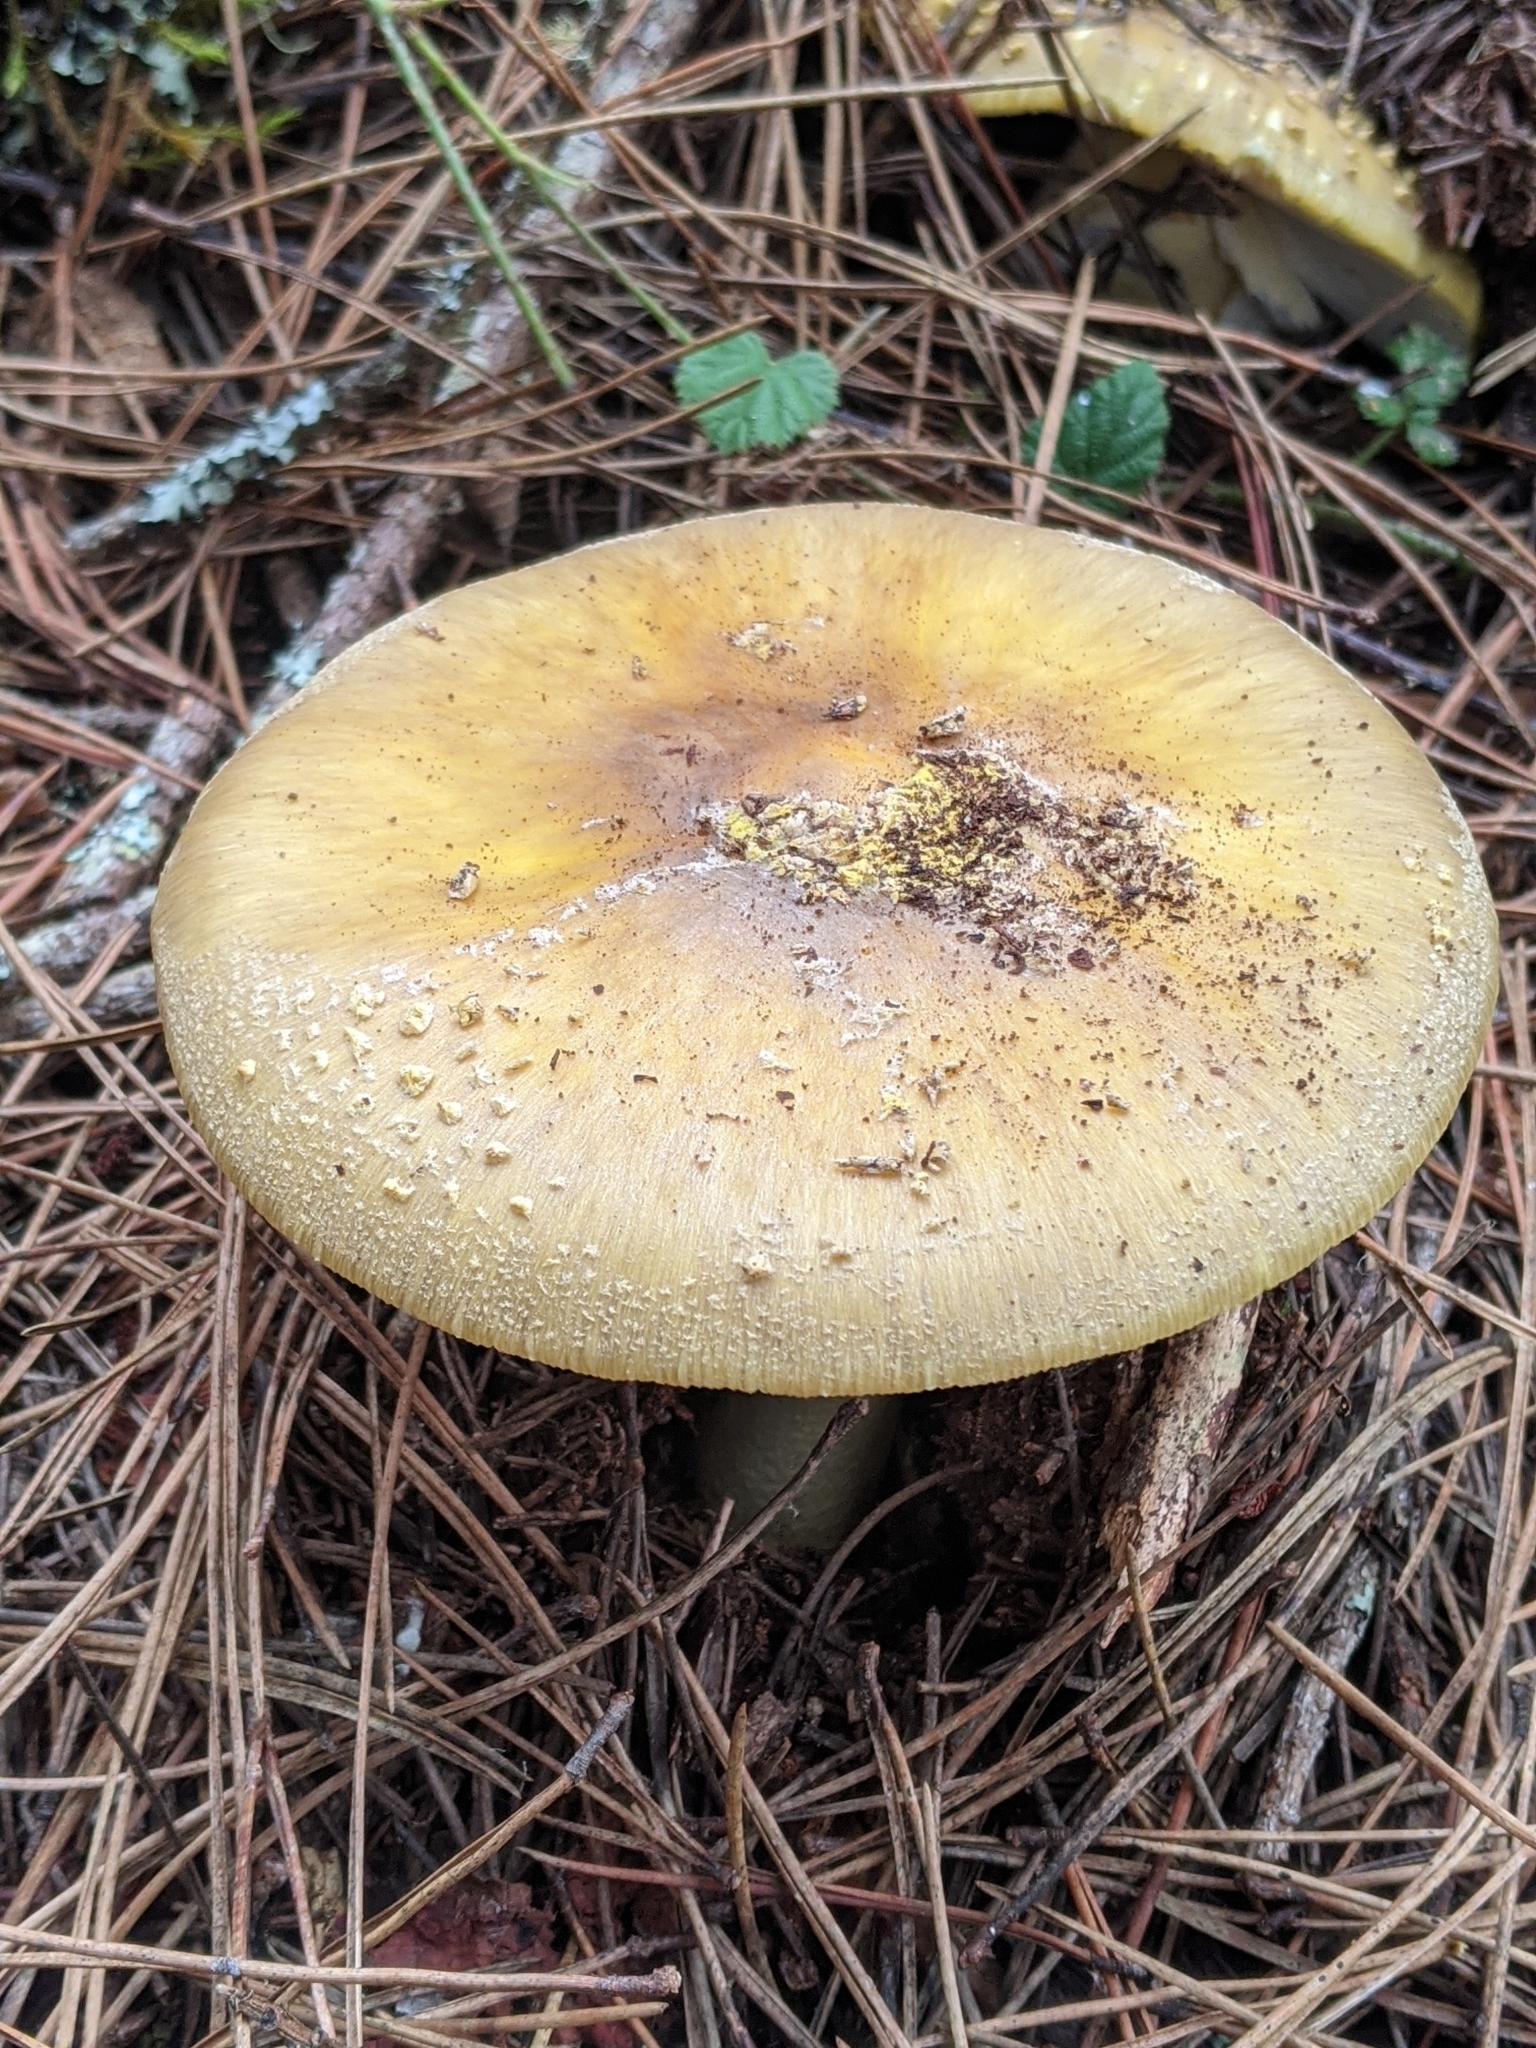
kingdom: Fungi
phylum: Basidiomycota
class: Agaricomycetes
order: Agaricales
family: Amanitaceae
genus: Amanita
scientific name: Amanita augusta
